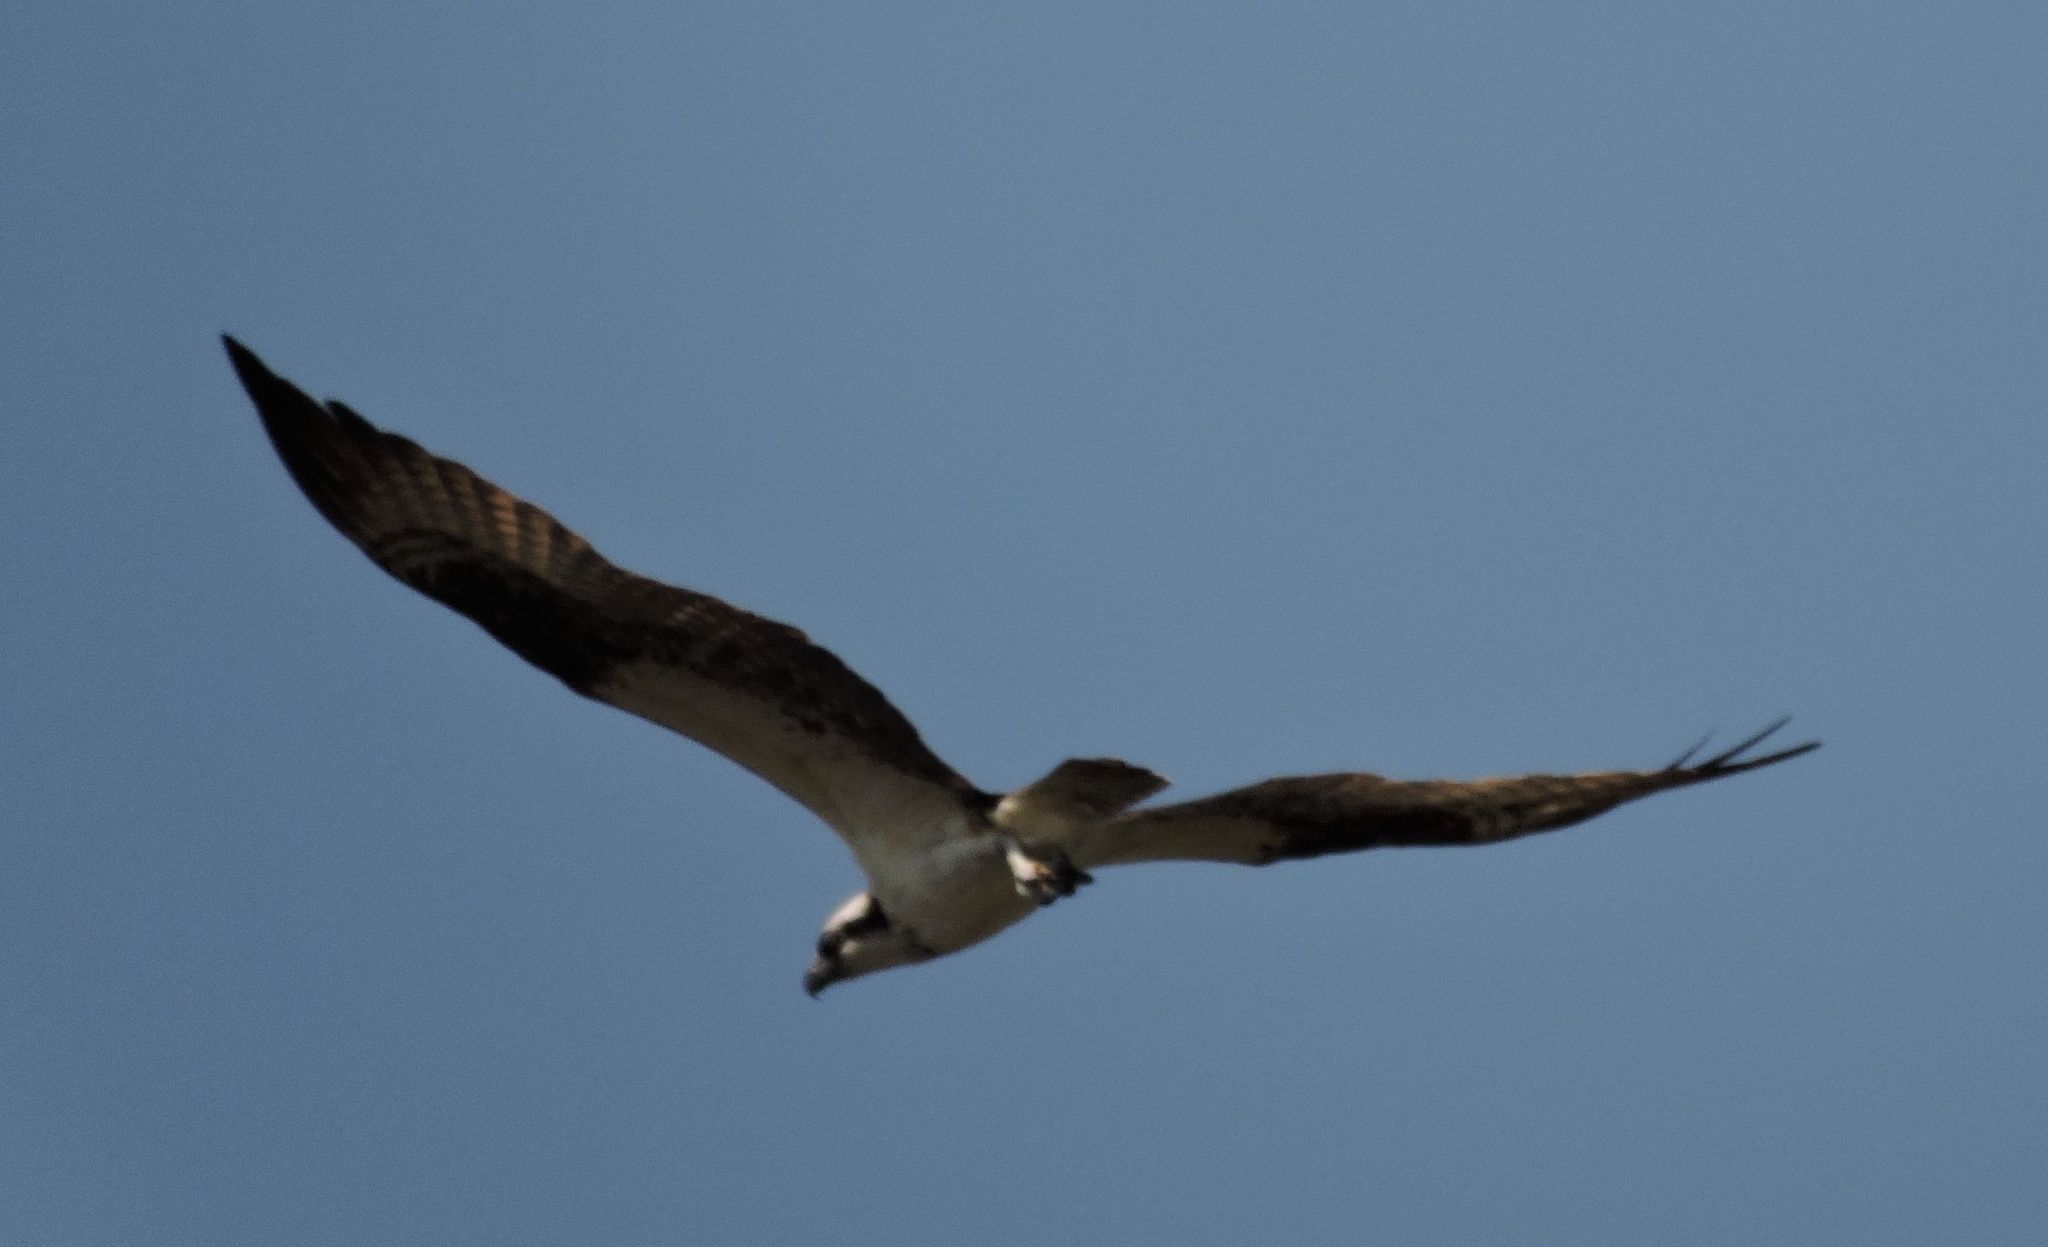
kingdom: Animalia
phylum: Chordata
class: Aves
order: Accipitriformes
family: Pandionidae
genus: Pandion
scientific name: Pandion haliaetus
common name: Osprey
